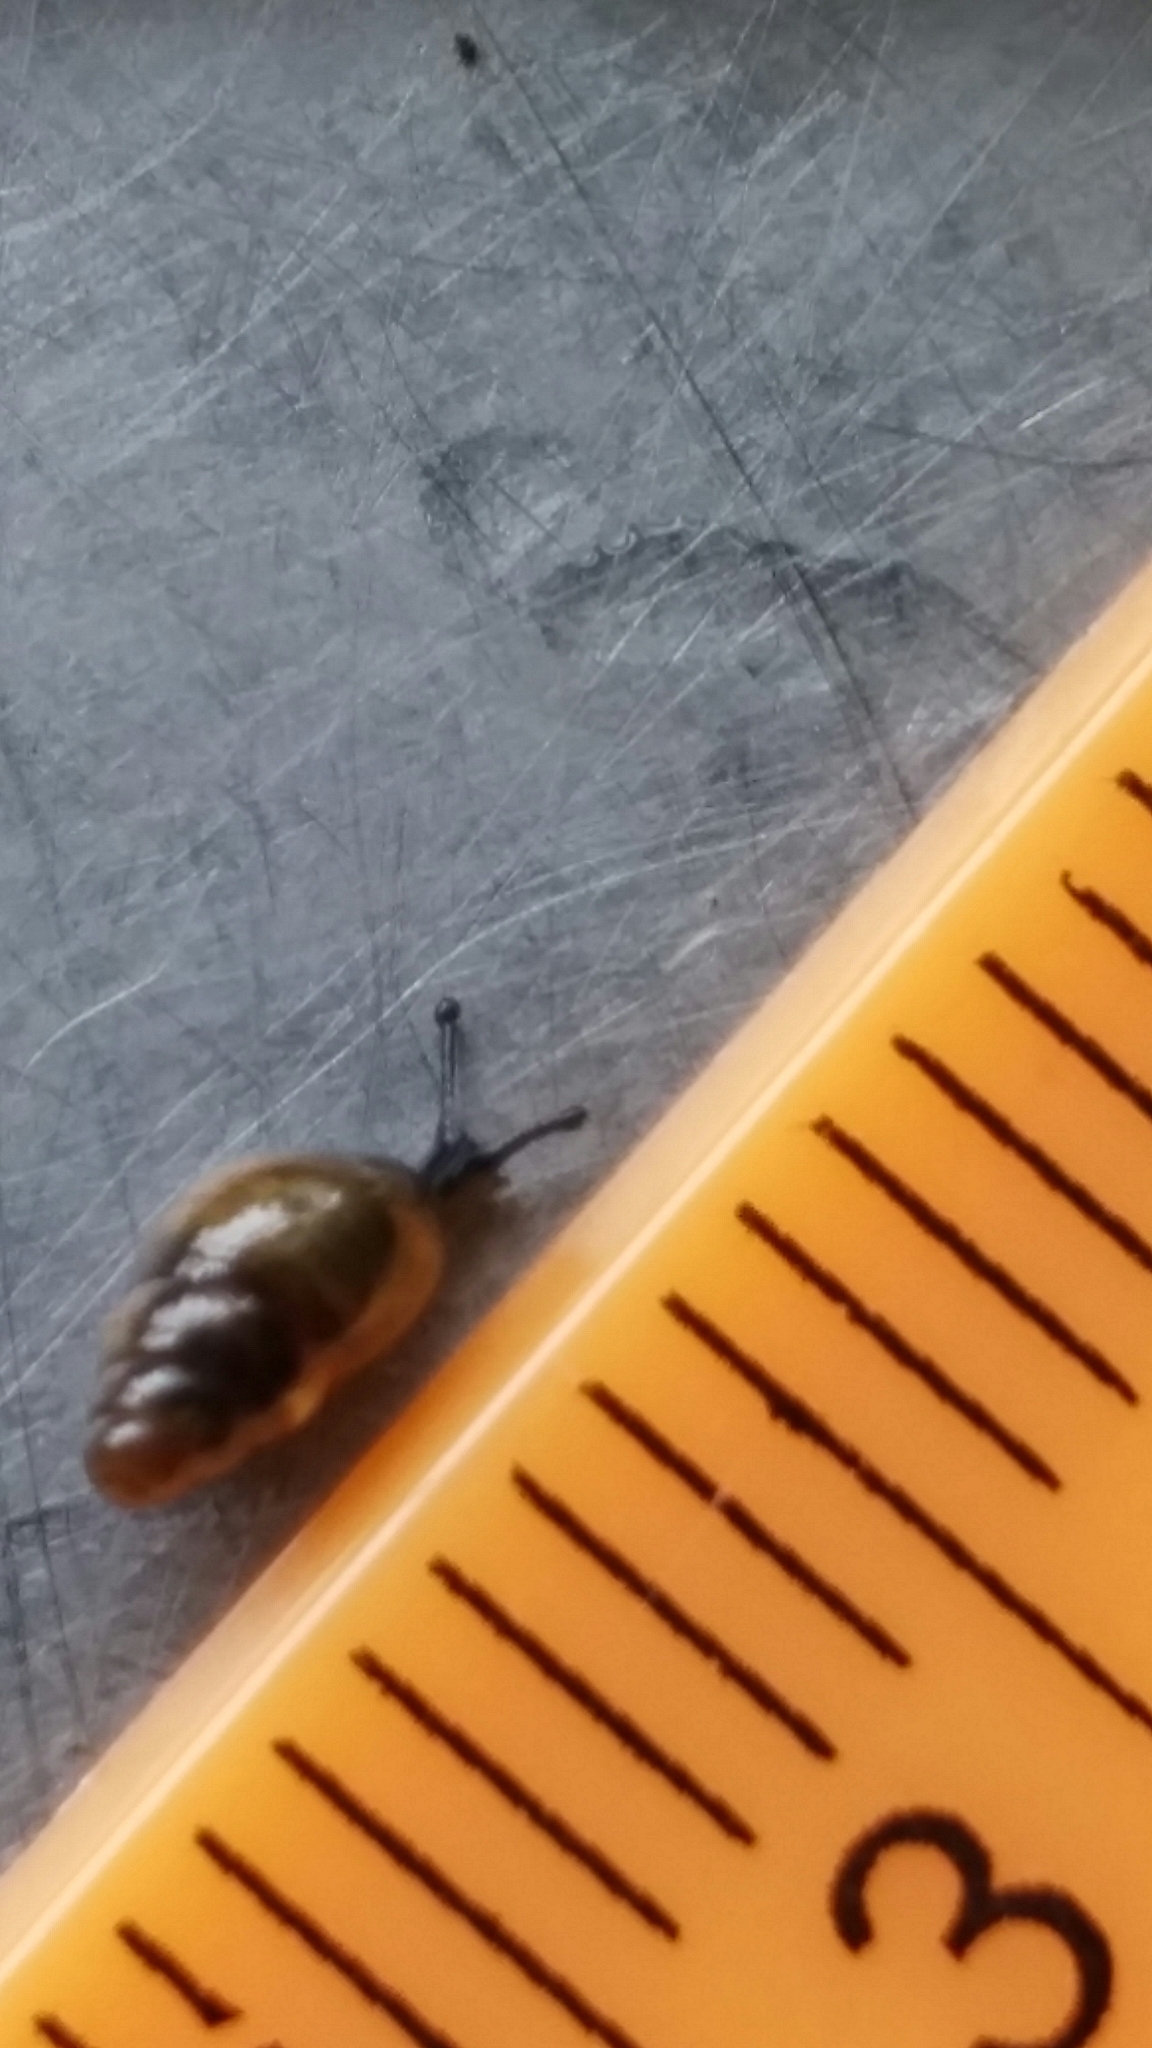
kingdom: Animalia
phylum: Mollusca
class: Gastropoda
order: Stylommatophora
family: Cochlicopidae
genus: Cochlicopa
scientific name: Cochlicopa lubrica
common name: Glossy pillar snail
